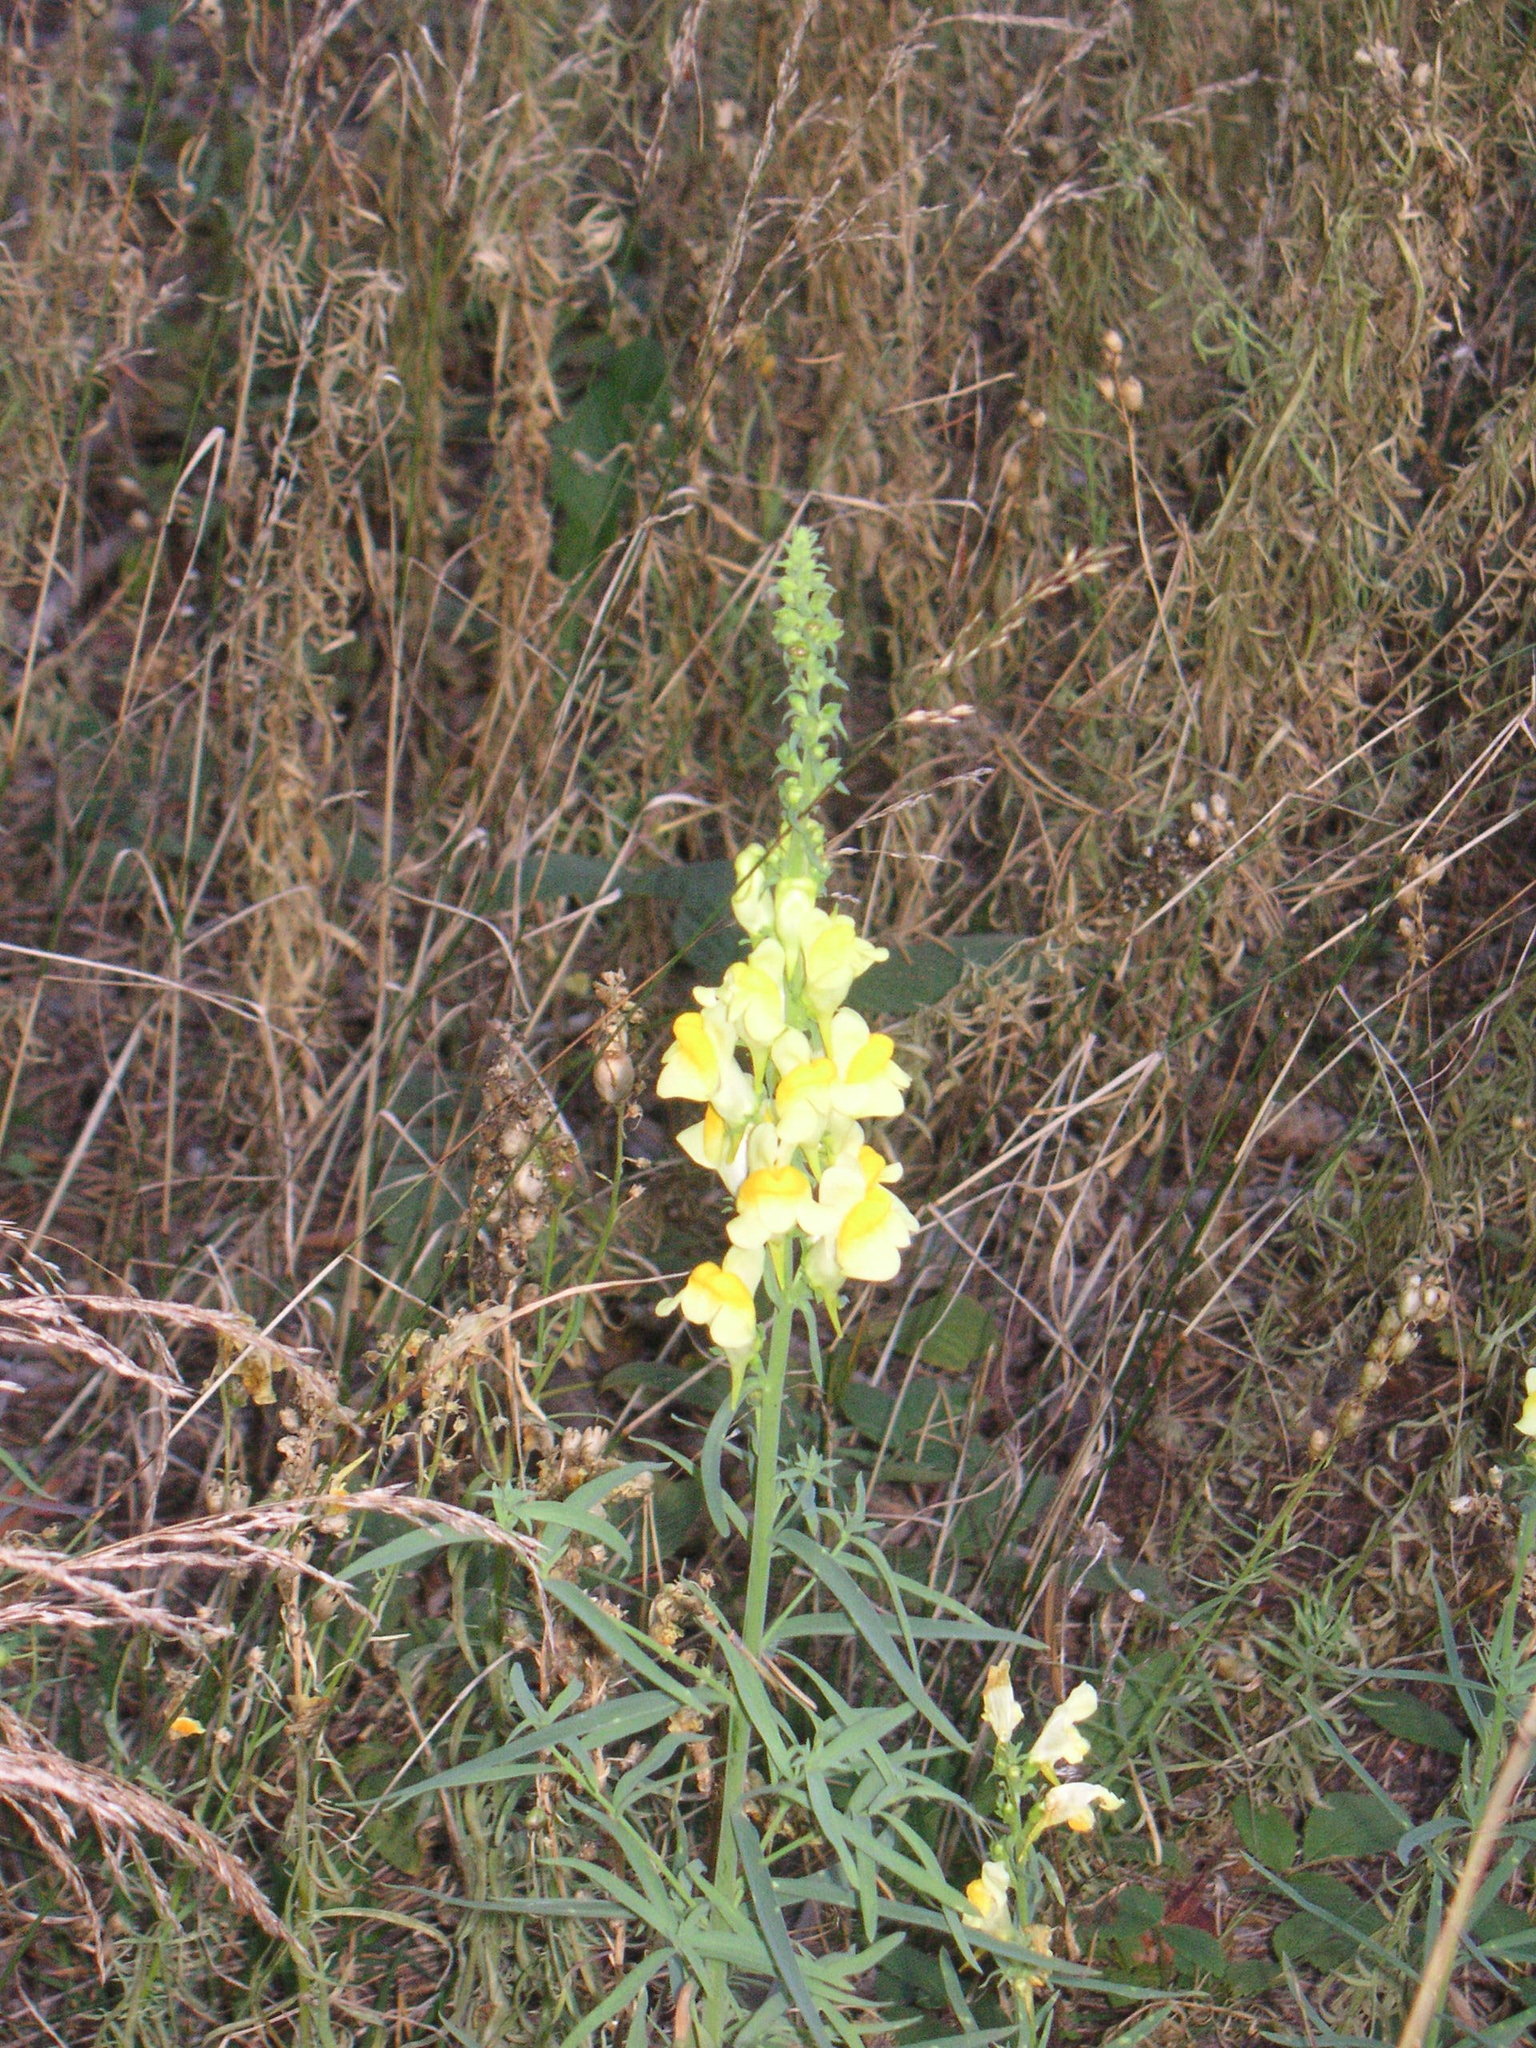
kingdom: Plantae
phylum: Tracheophyta
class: Magnoliopsida
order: Lamiales
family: Plantaginaceae
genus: Linaria
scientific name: Linaria vulgaris
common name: Butter and eggs
